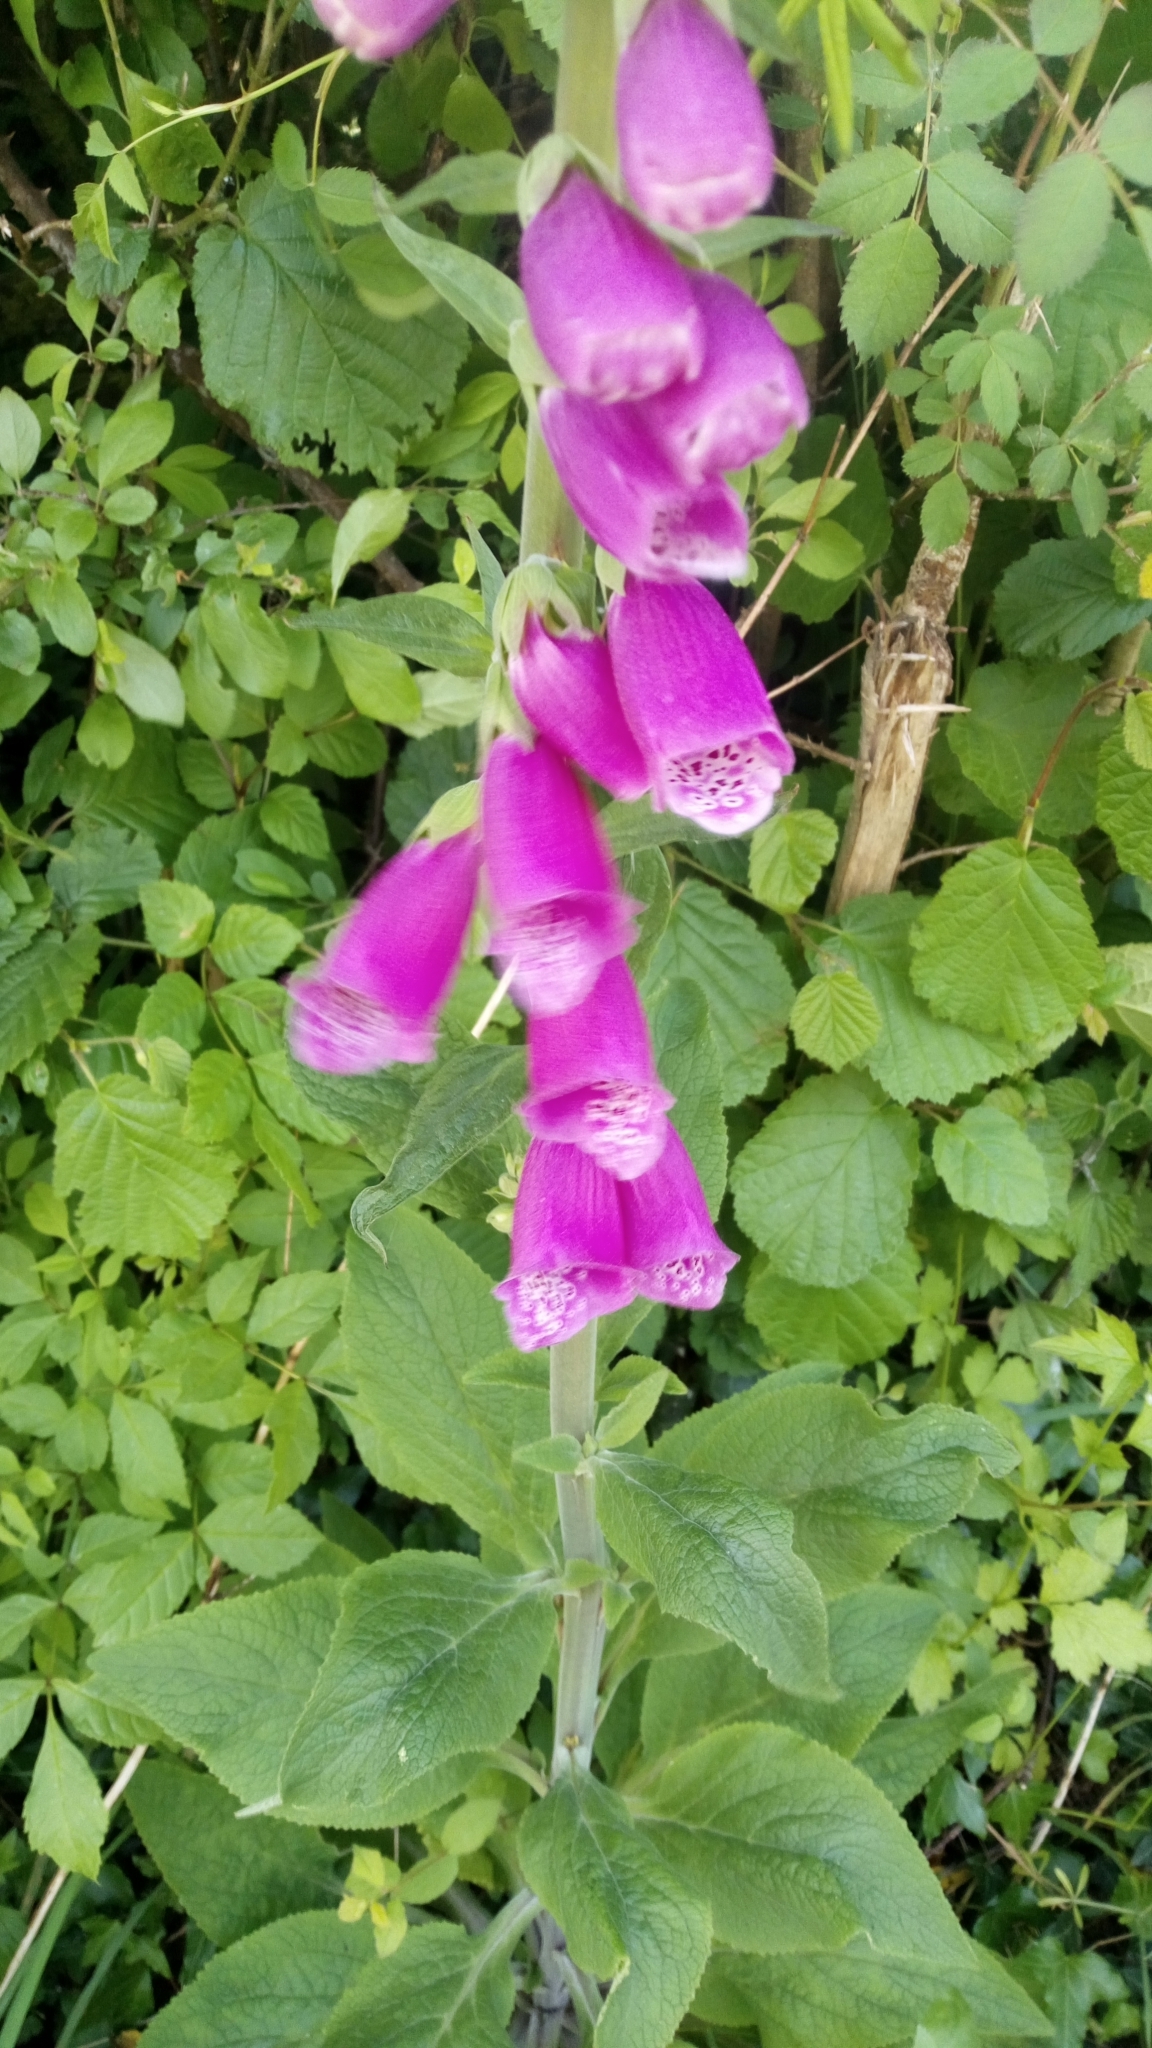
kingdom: Plantae
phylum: Tracheophyta
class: Magnoliopsida
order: Lamiales
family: Plantaginaceae
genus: Digitalis
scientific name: Digitalis purpurea
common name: Foxglove
